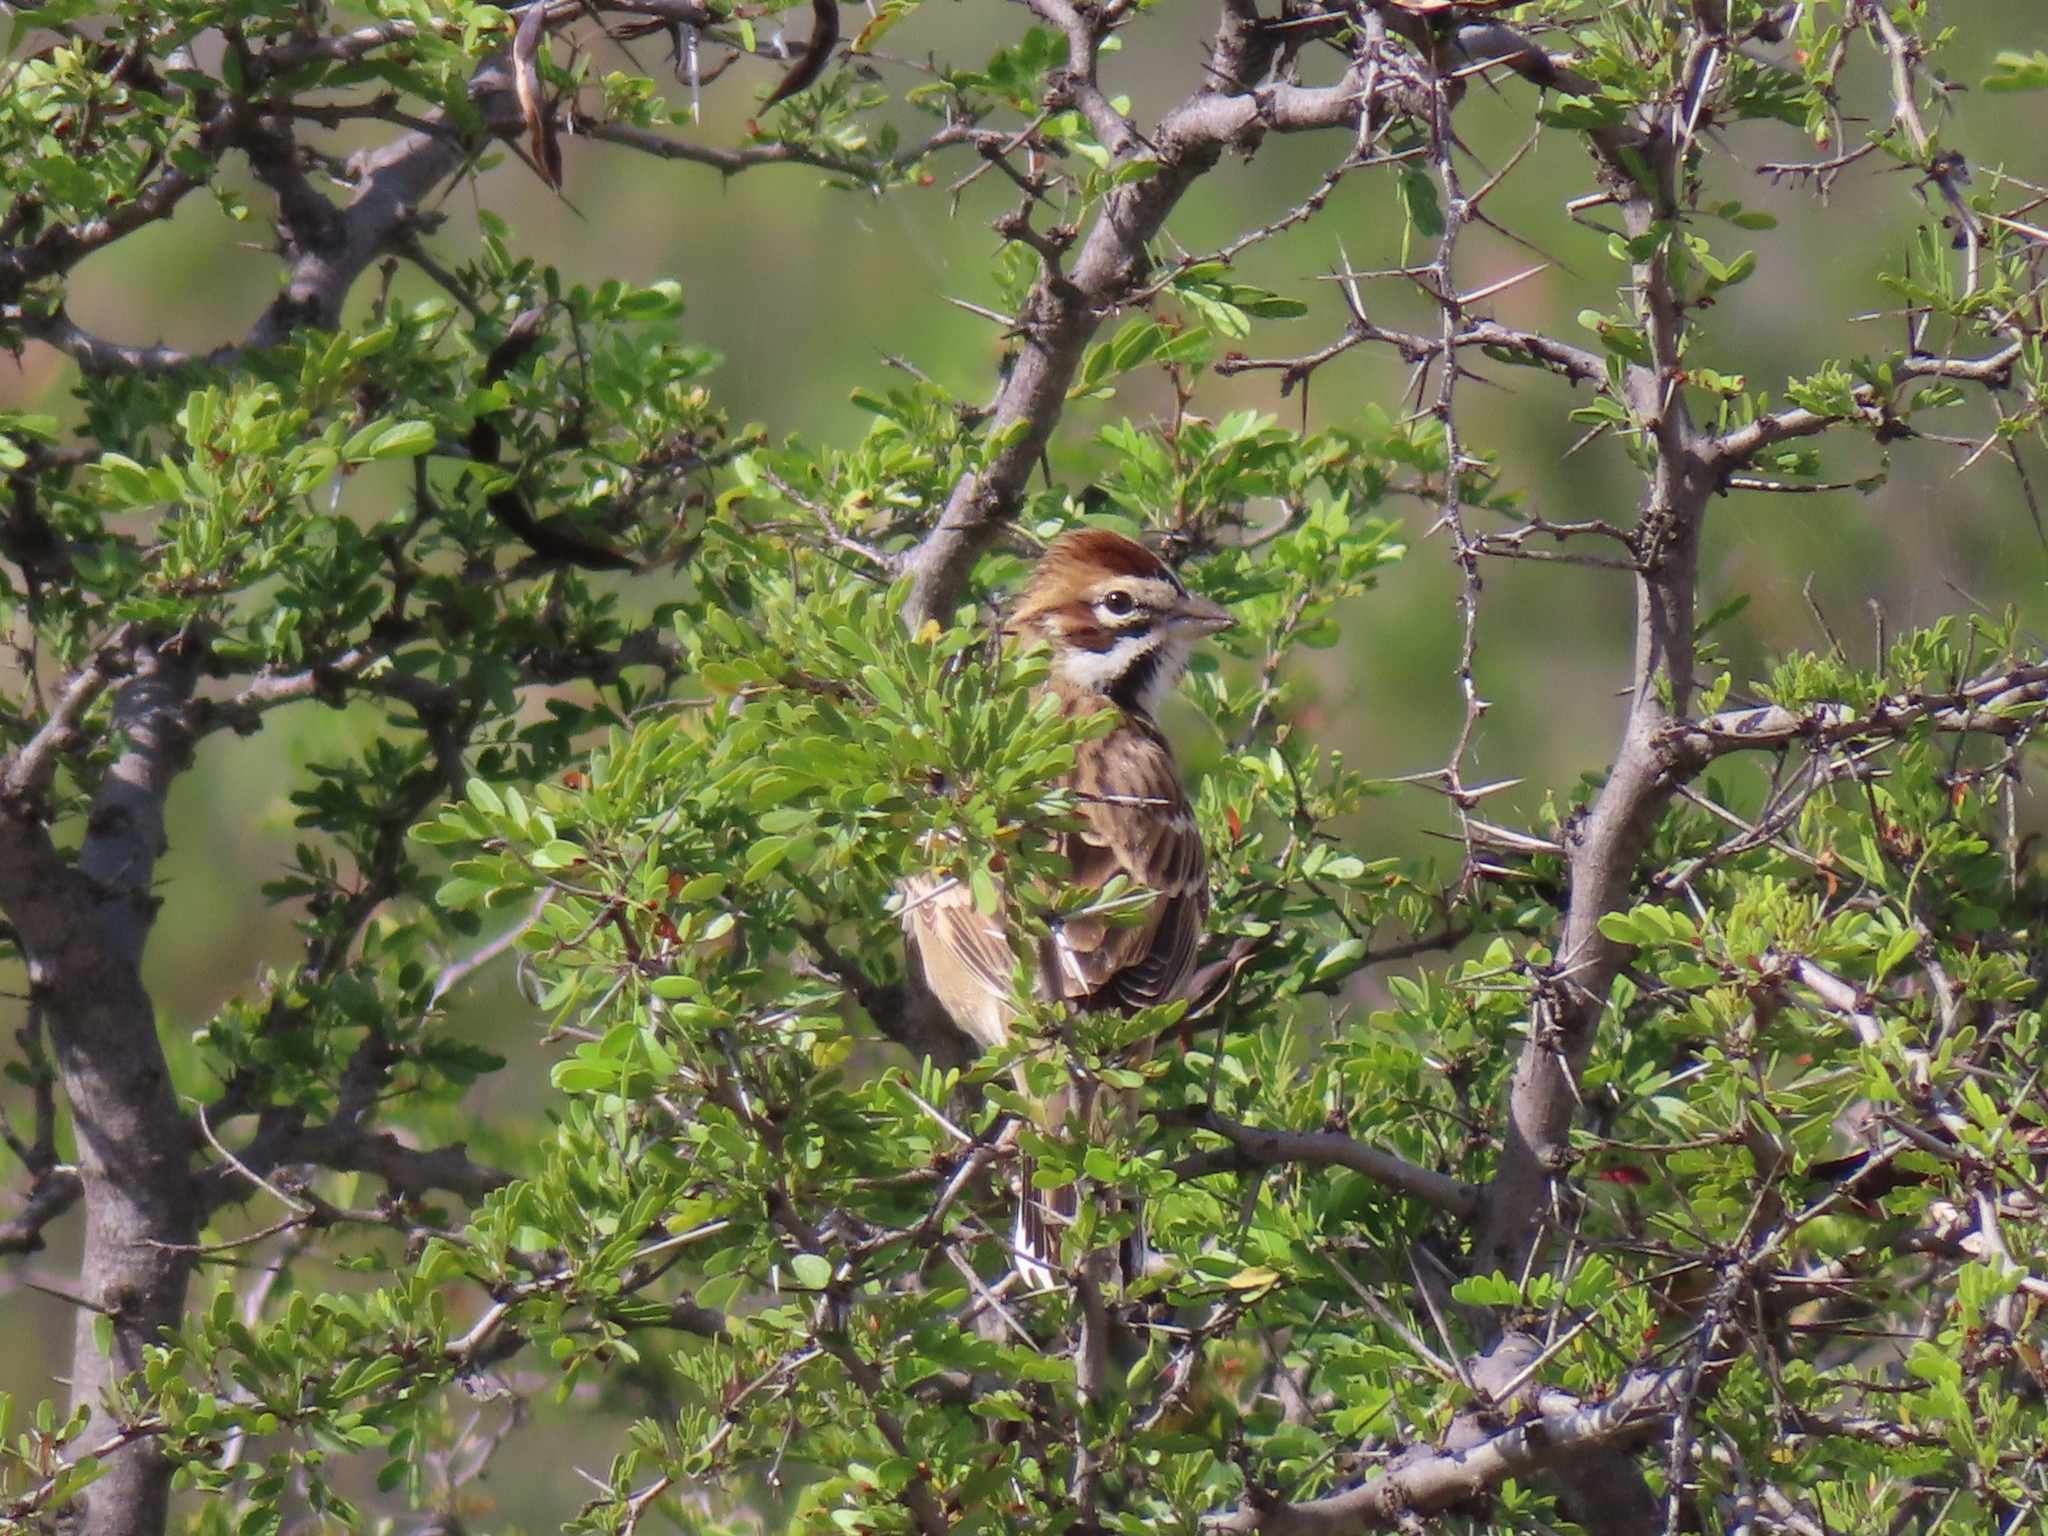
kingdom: Animalia
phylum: Chordata
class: Aves
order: Passeriformes
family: Passerellidae
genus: Chondestes
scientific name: Chondestes grammacus
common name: Lark sparrow
